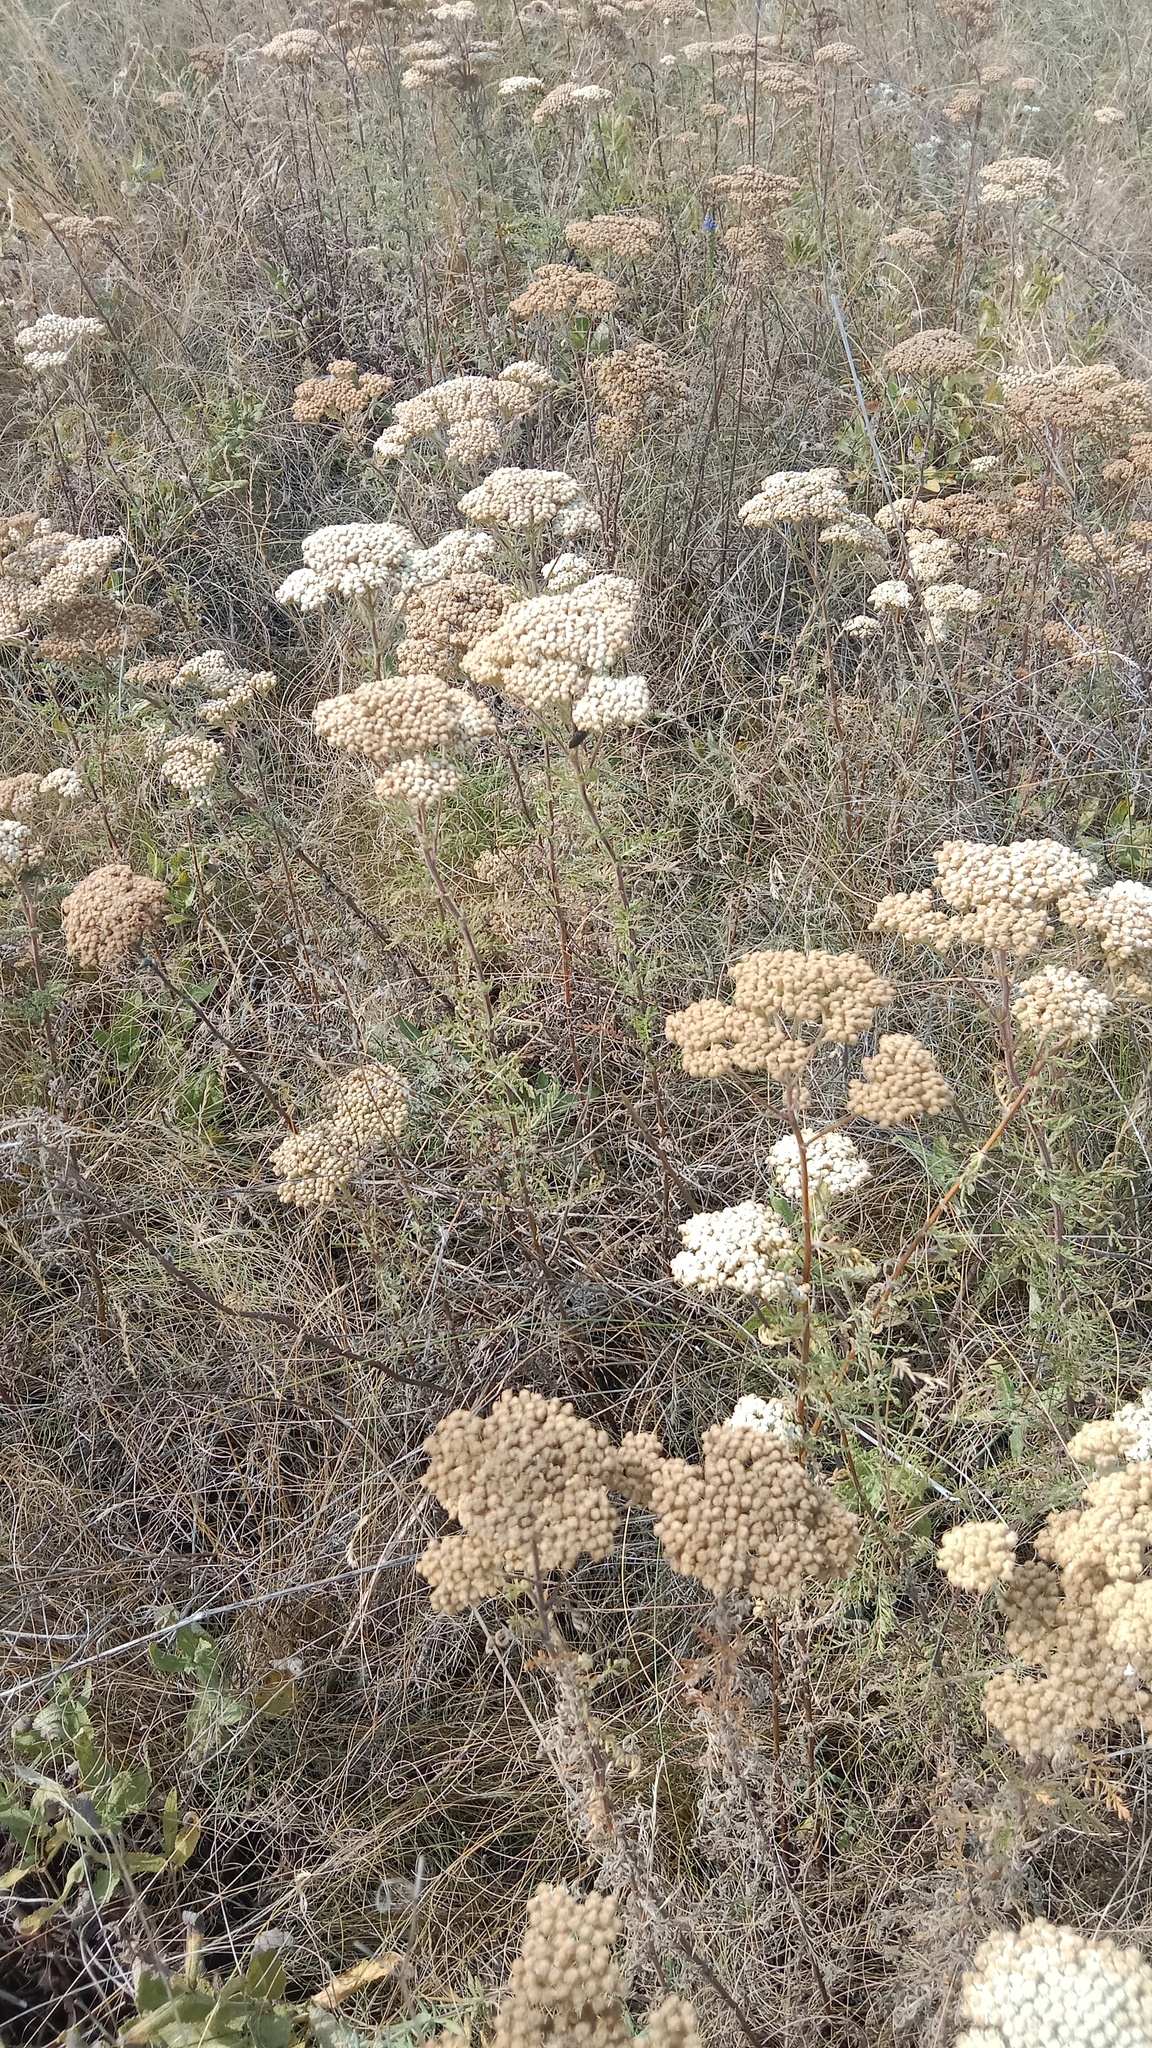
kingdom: Plantae
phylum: Tracheophyta
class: Magnoliopsida
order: Asterales
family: Asteraceae
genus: Achillea
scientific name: Achillea nobilis
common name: Noble yarrow
